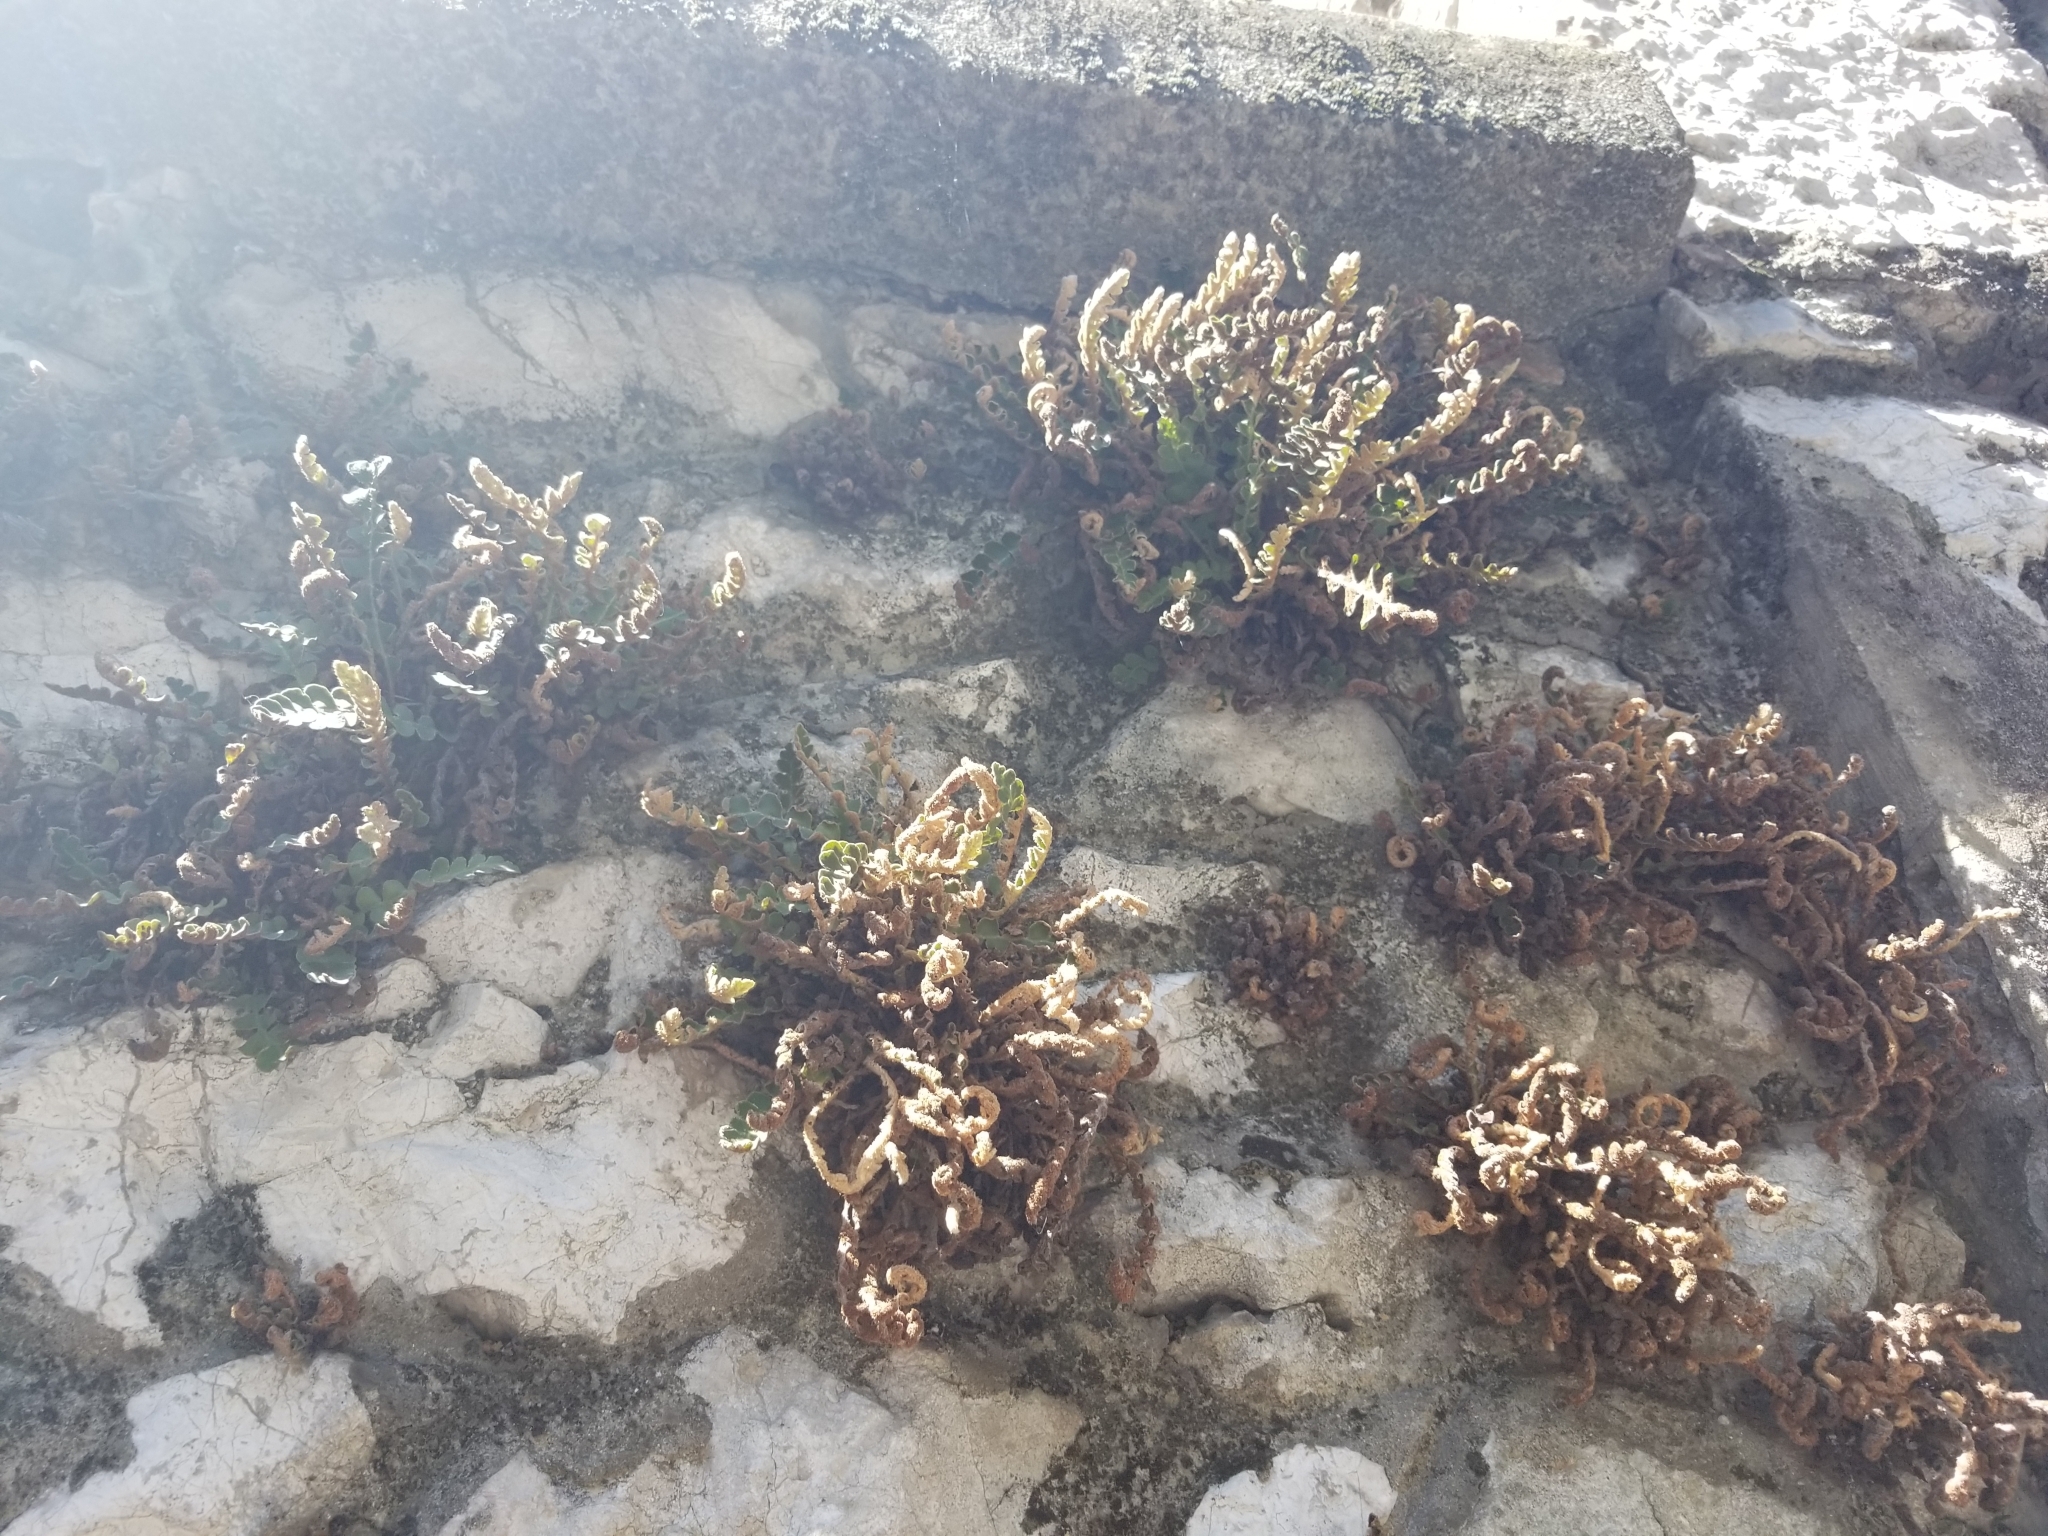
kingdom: Plantae
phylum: Tracheophyta
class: Polypodiopsida
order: Polypodiales
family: Aspleniaceae
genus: Asplenium
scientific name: Asplenium ceterach
